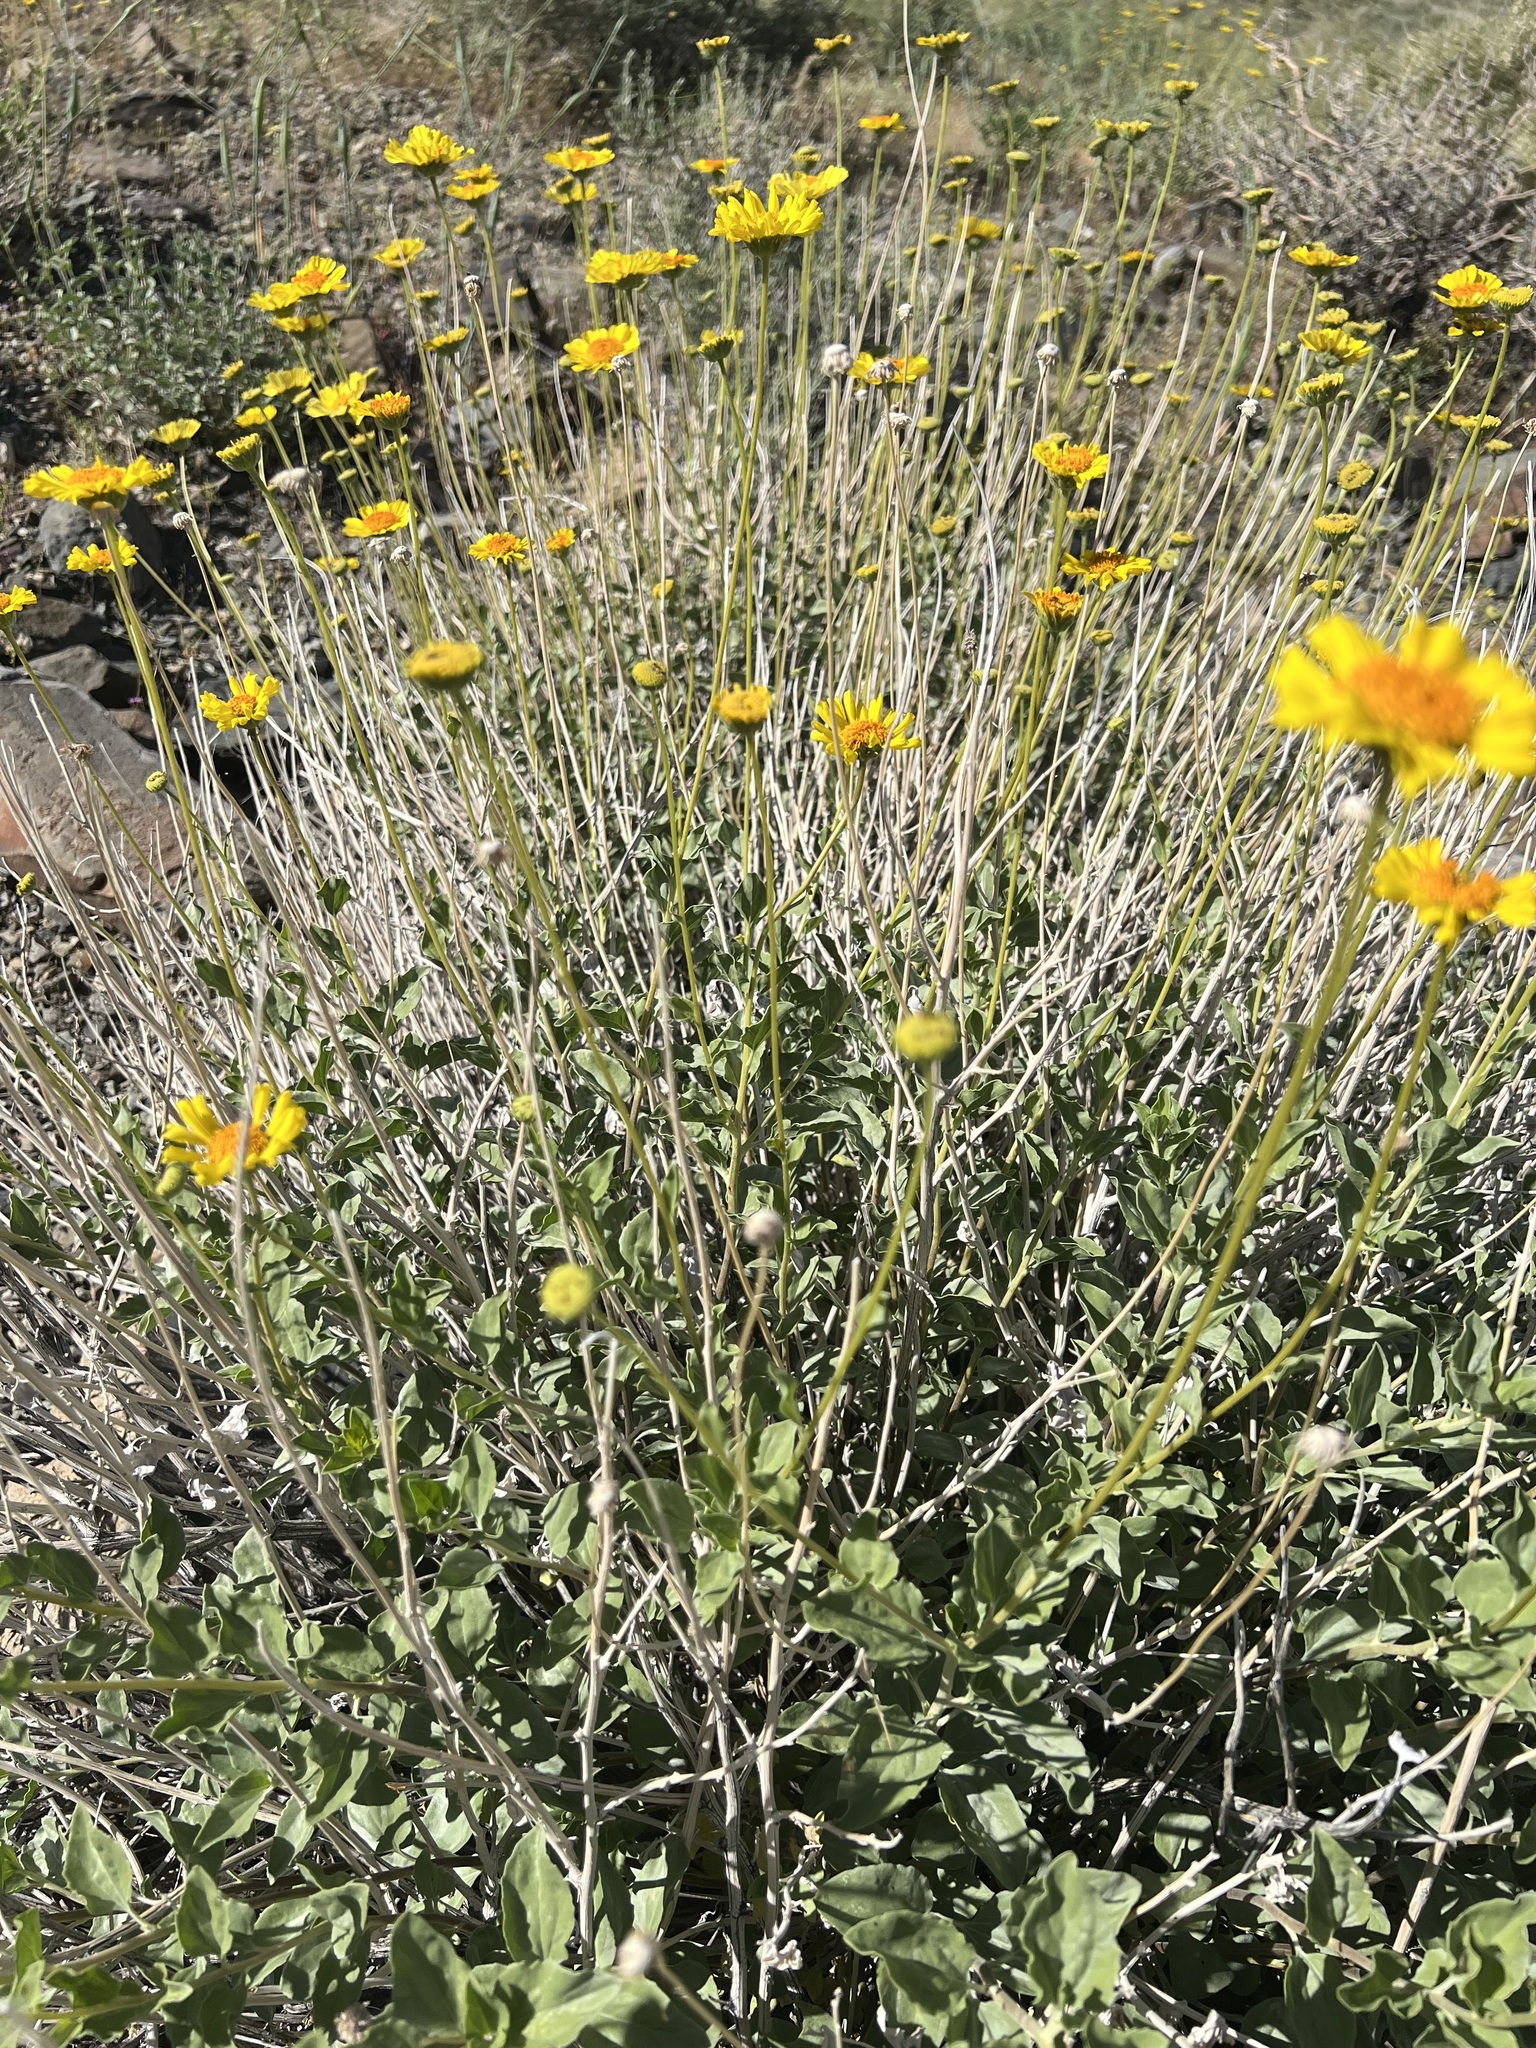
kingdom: Plantae
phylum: Tracheophyta
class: Magnoliopsida
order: Asterales
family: Asteraceae
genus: Encelia
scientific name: Encelia actoni
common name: Acton encelia
